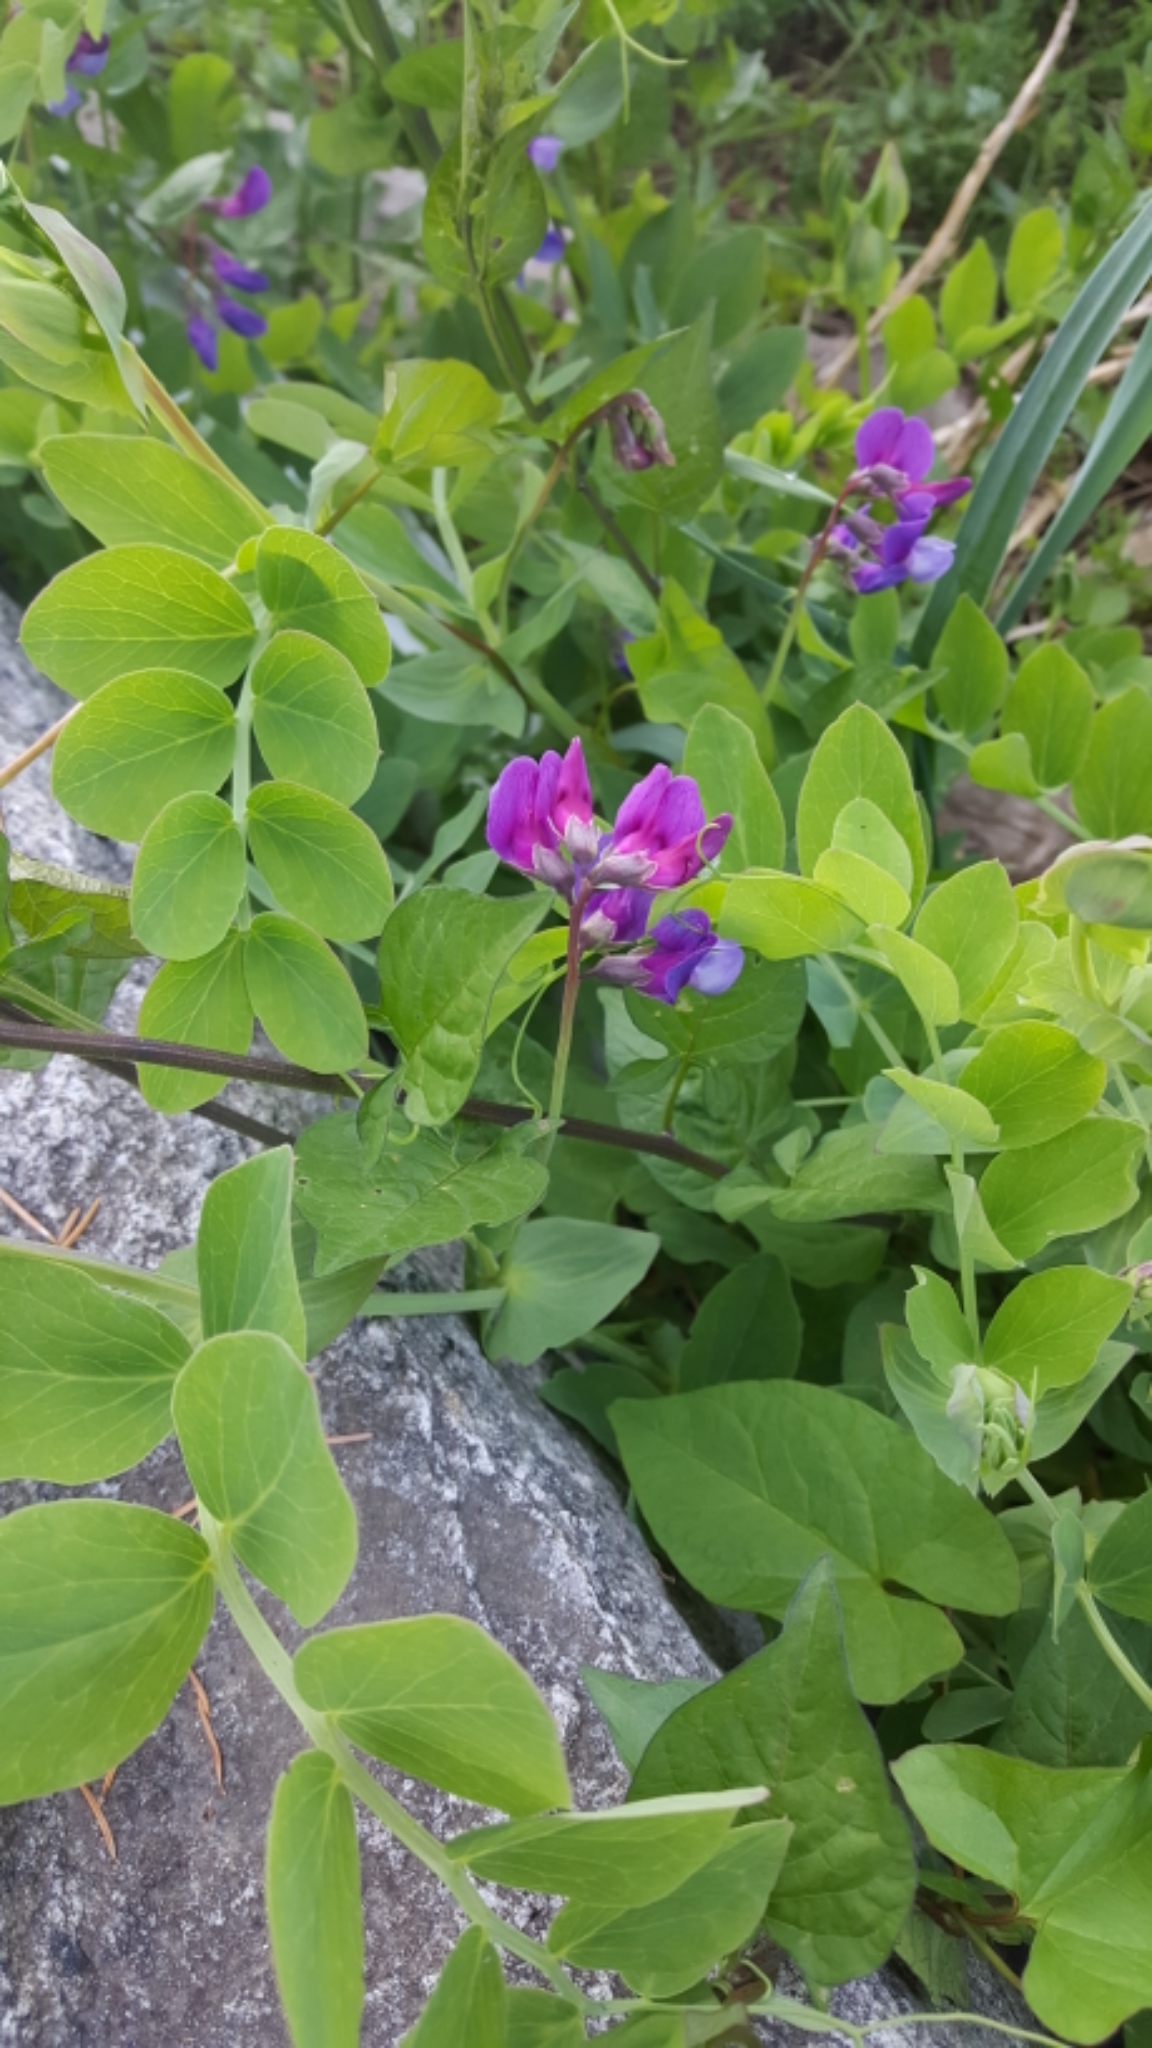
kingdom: Plantae
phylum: Tracheophyta
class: Magnoliopsida
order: Fabales
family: Fabaceae
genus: Lathyrus
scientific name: Lathyrus japonicus
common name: Sea pea
